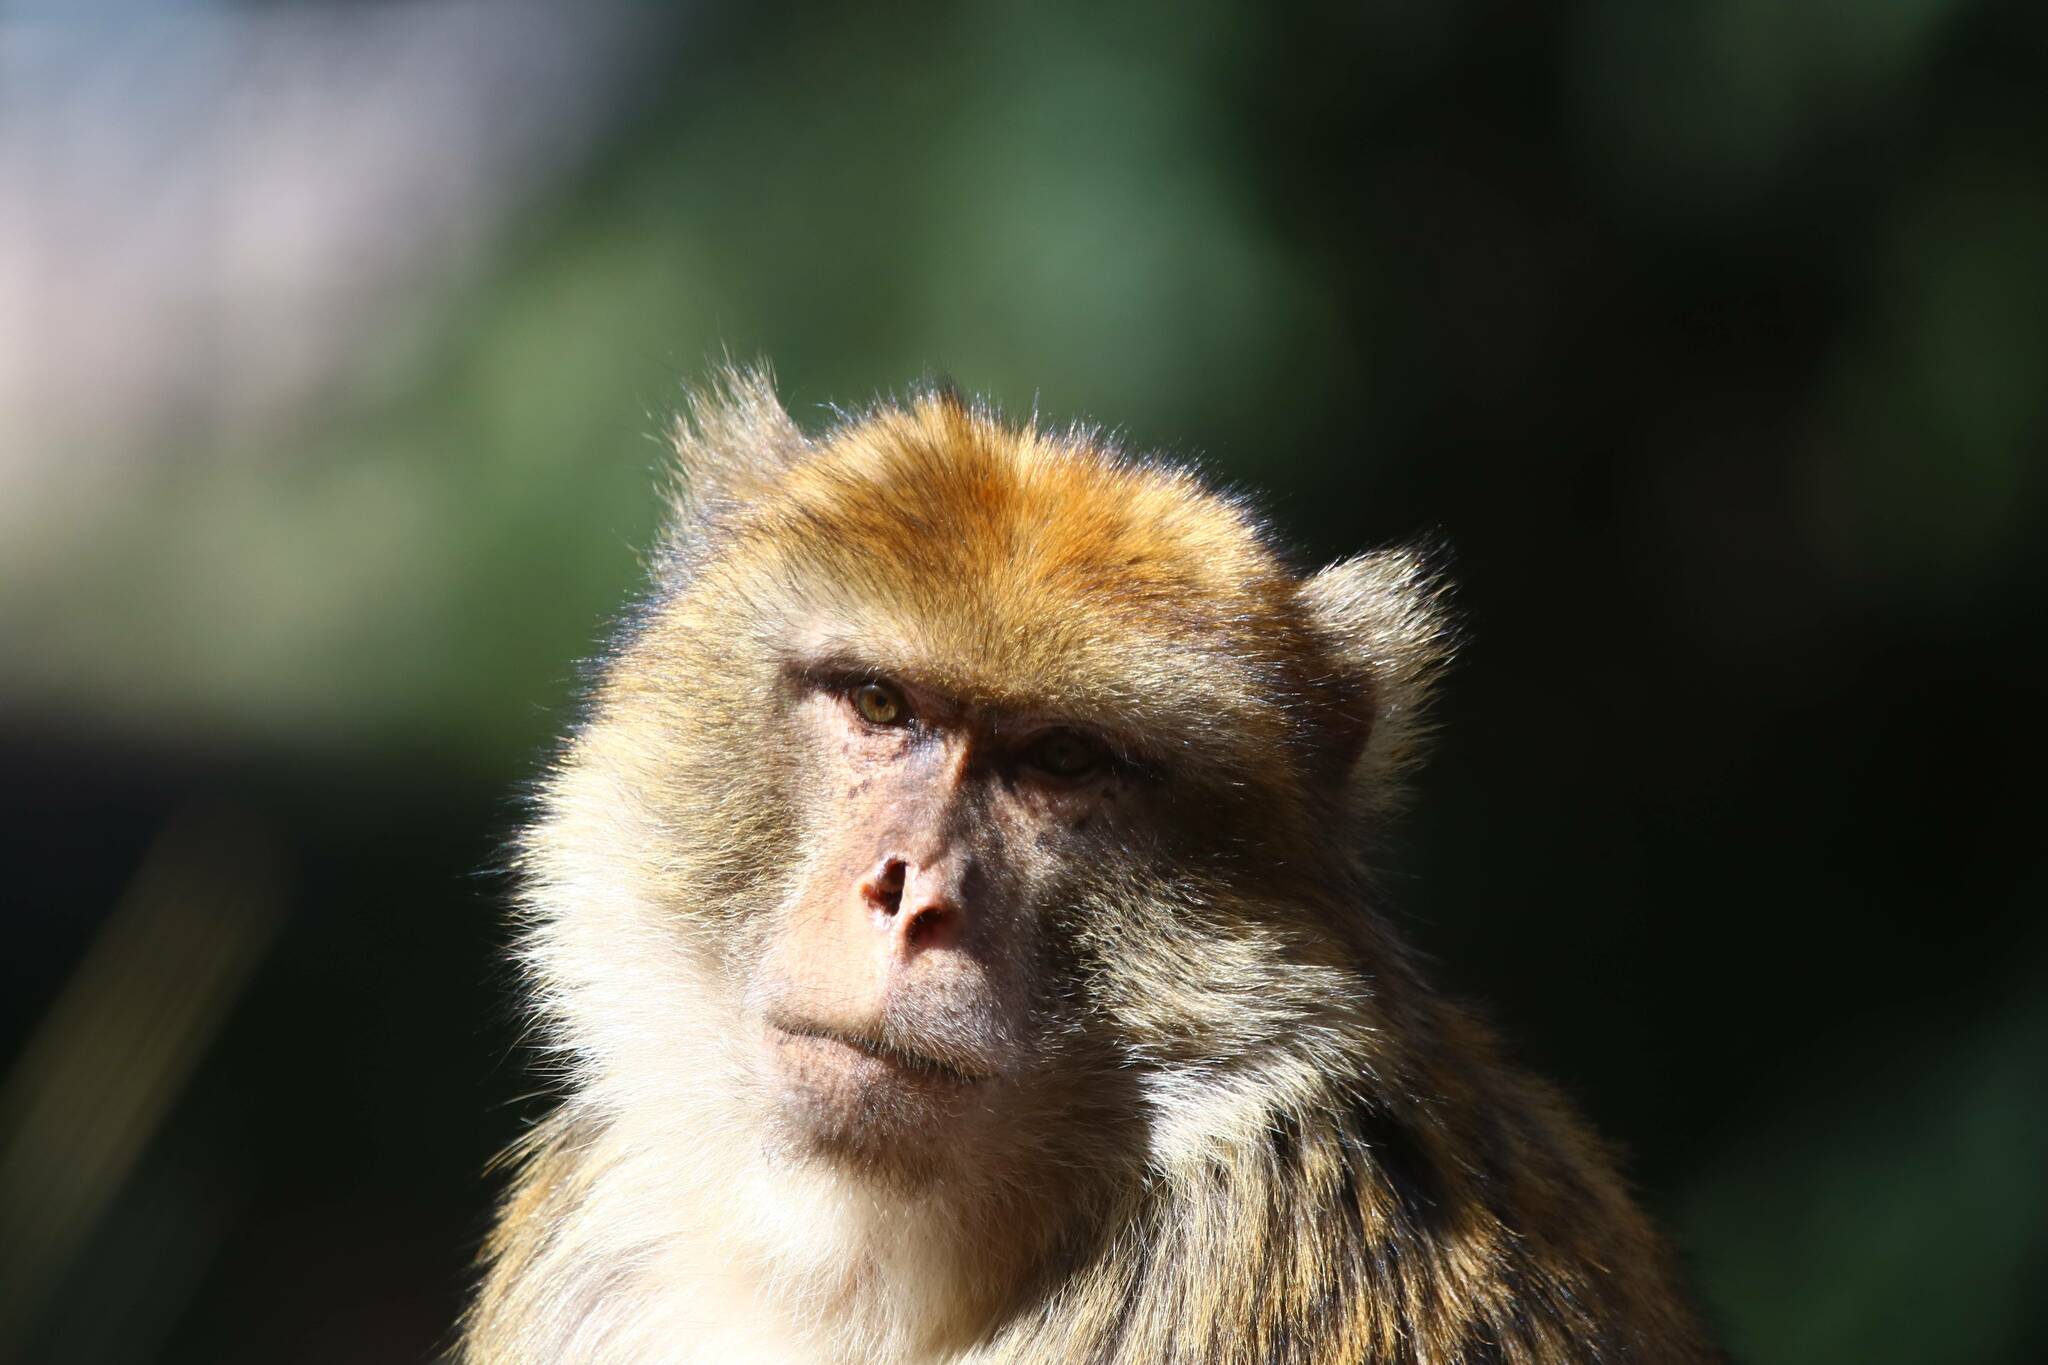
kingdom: Animalia
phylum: Chordata
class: Mammalia
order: Primates
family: Cercopithecidae
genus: Macaca
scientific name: Macaca sylvanus
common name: Barbary macaque
